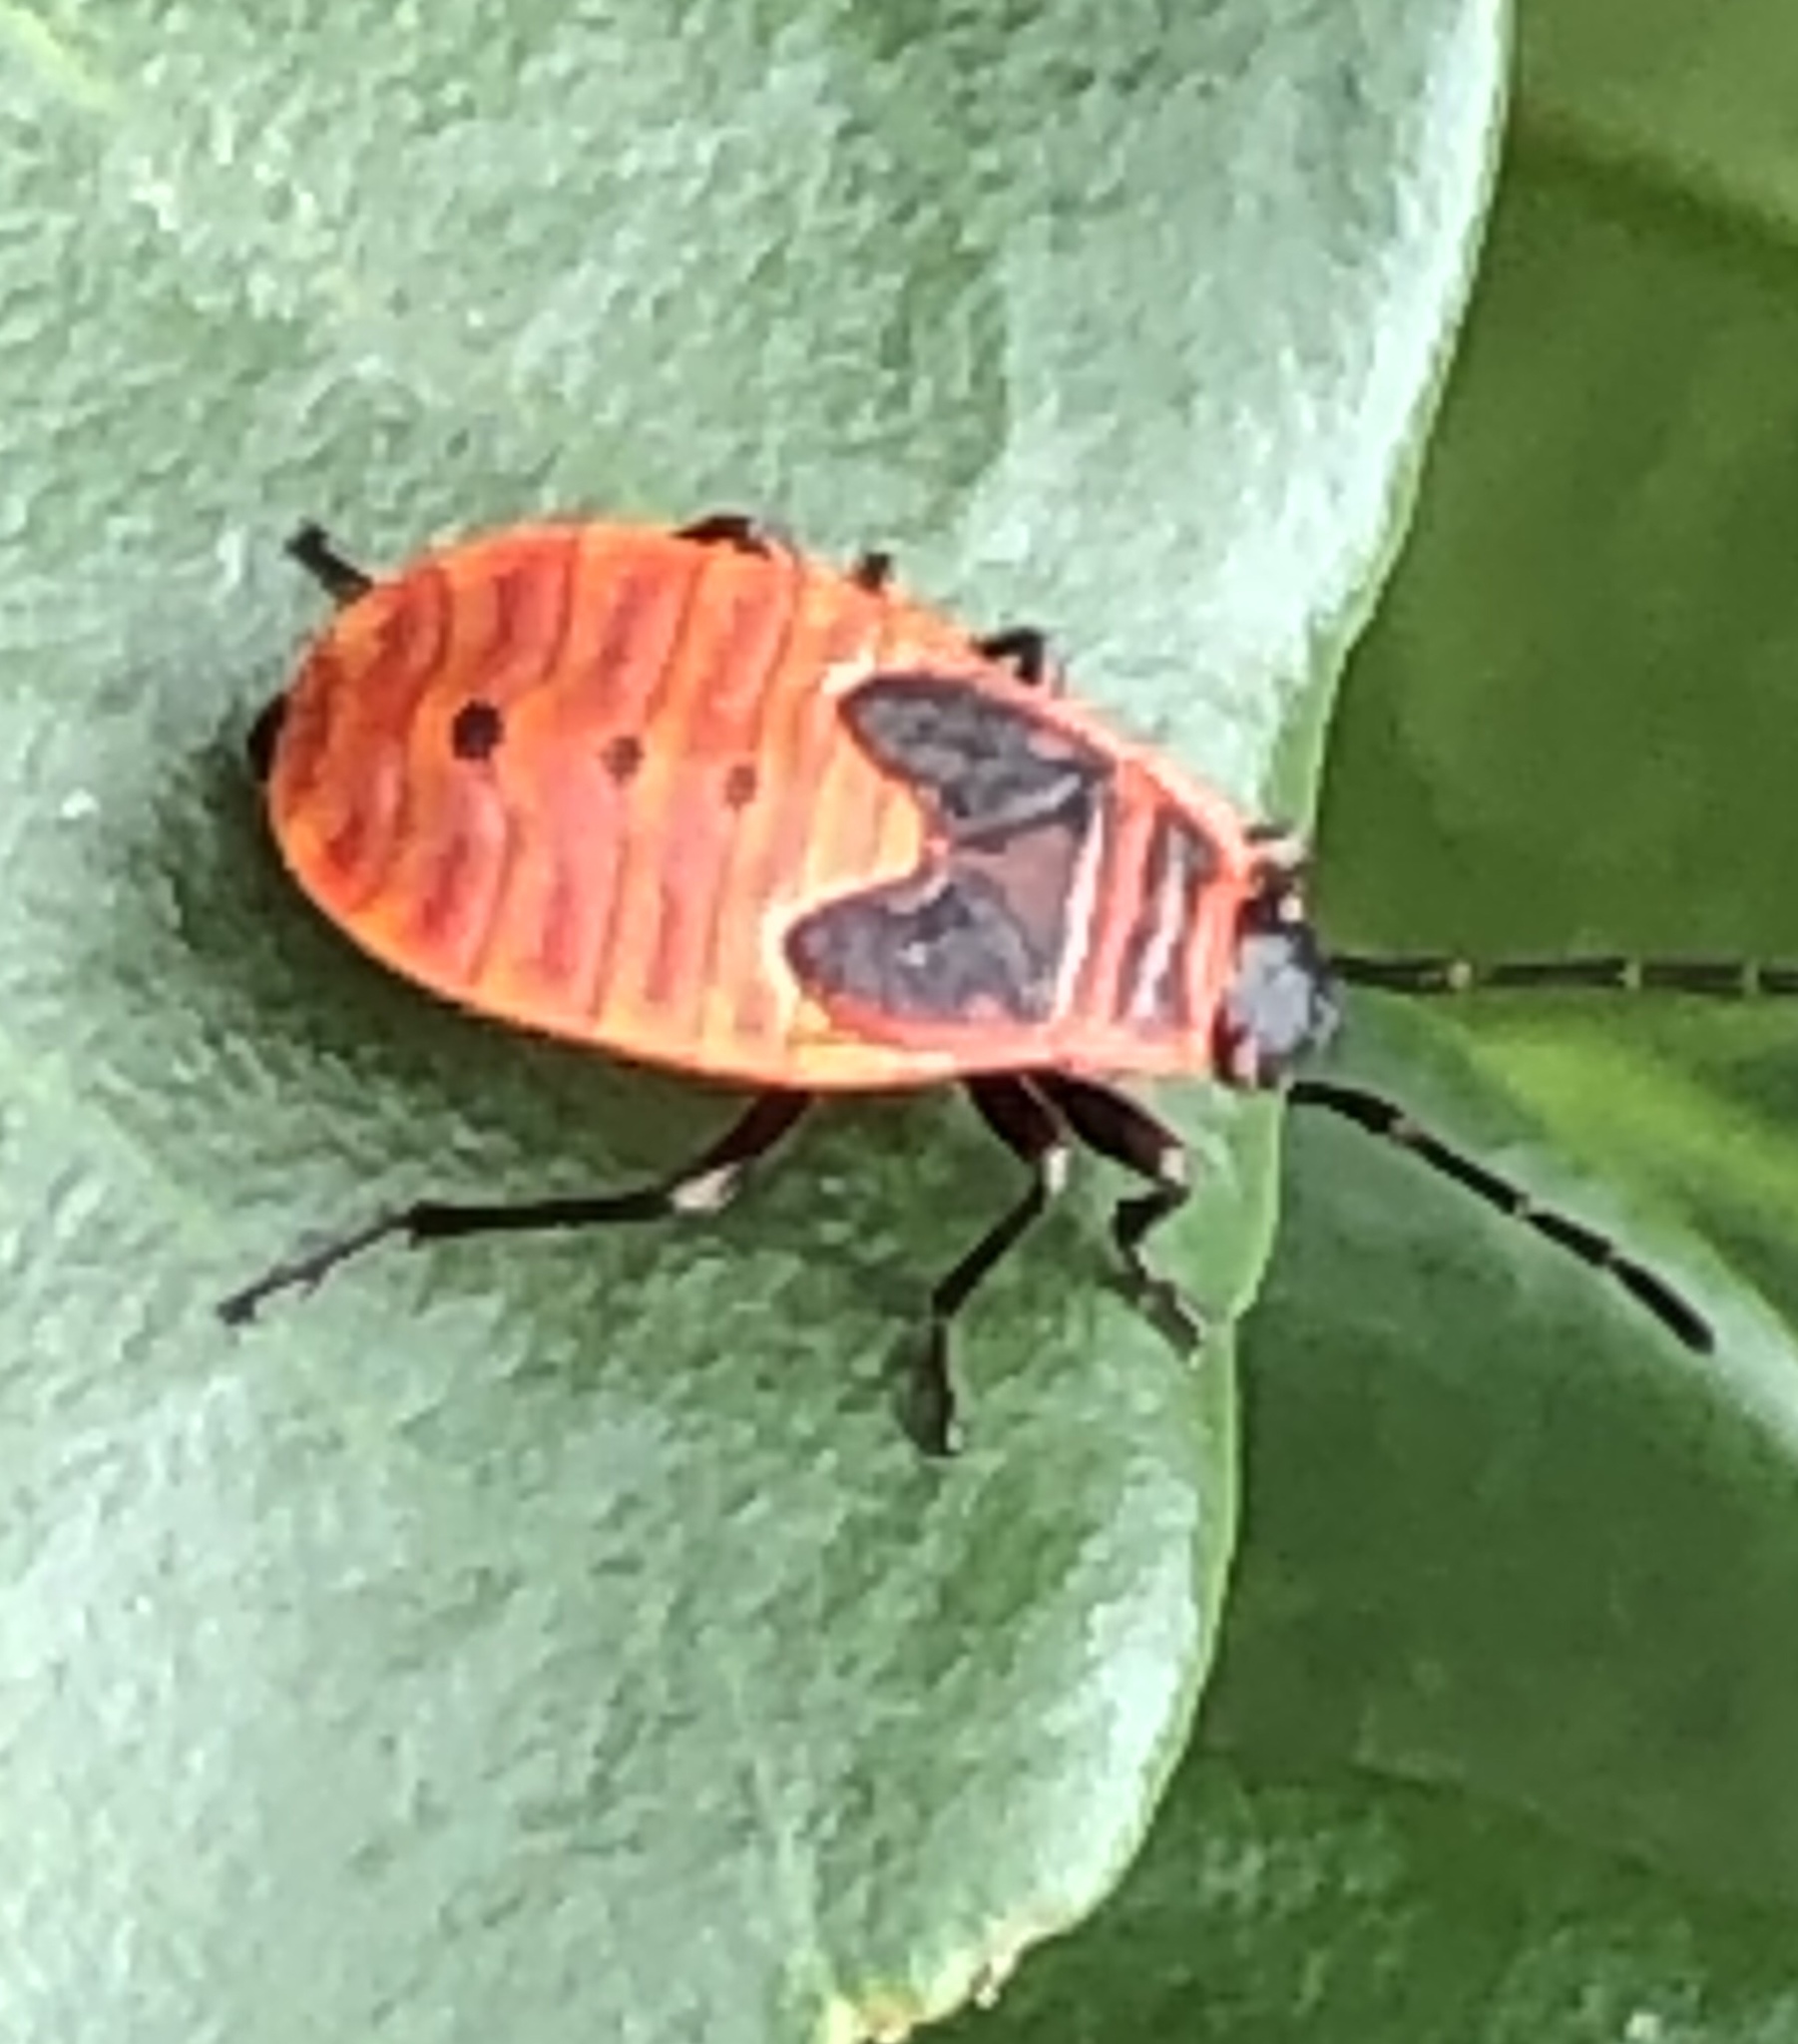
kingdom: Animalia
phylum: Arthropoda
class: Insecta
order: Hemiptera
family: Pyrrhocoridae
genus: Pyrrhocoris
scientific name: Pyrrhocoris apterus
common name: Firebug
